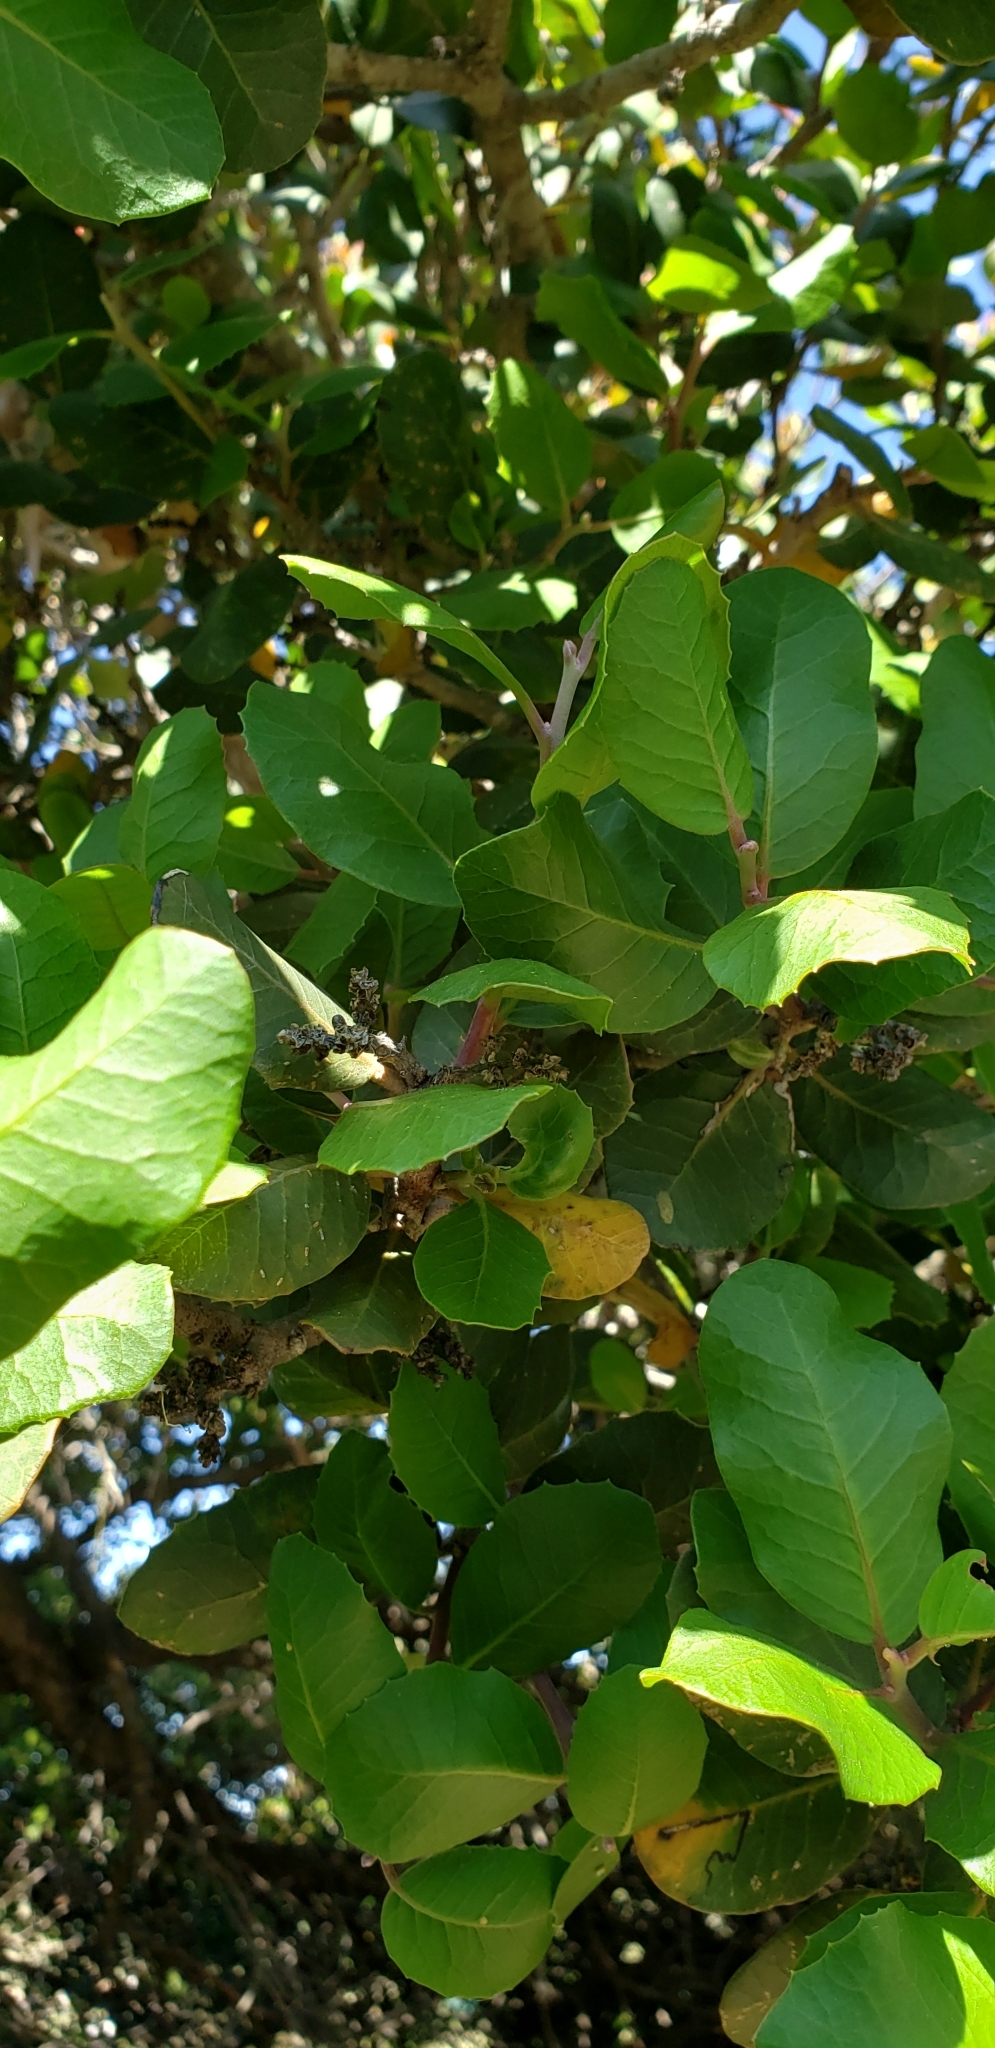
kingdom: Plantae
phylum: Tracheophyta
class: Magnoliopsida
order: Sapindales
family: Anacardiaceae
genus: Rhus
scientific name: Rhus integrifolia
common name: Lemonade sumac
